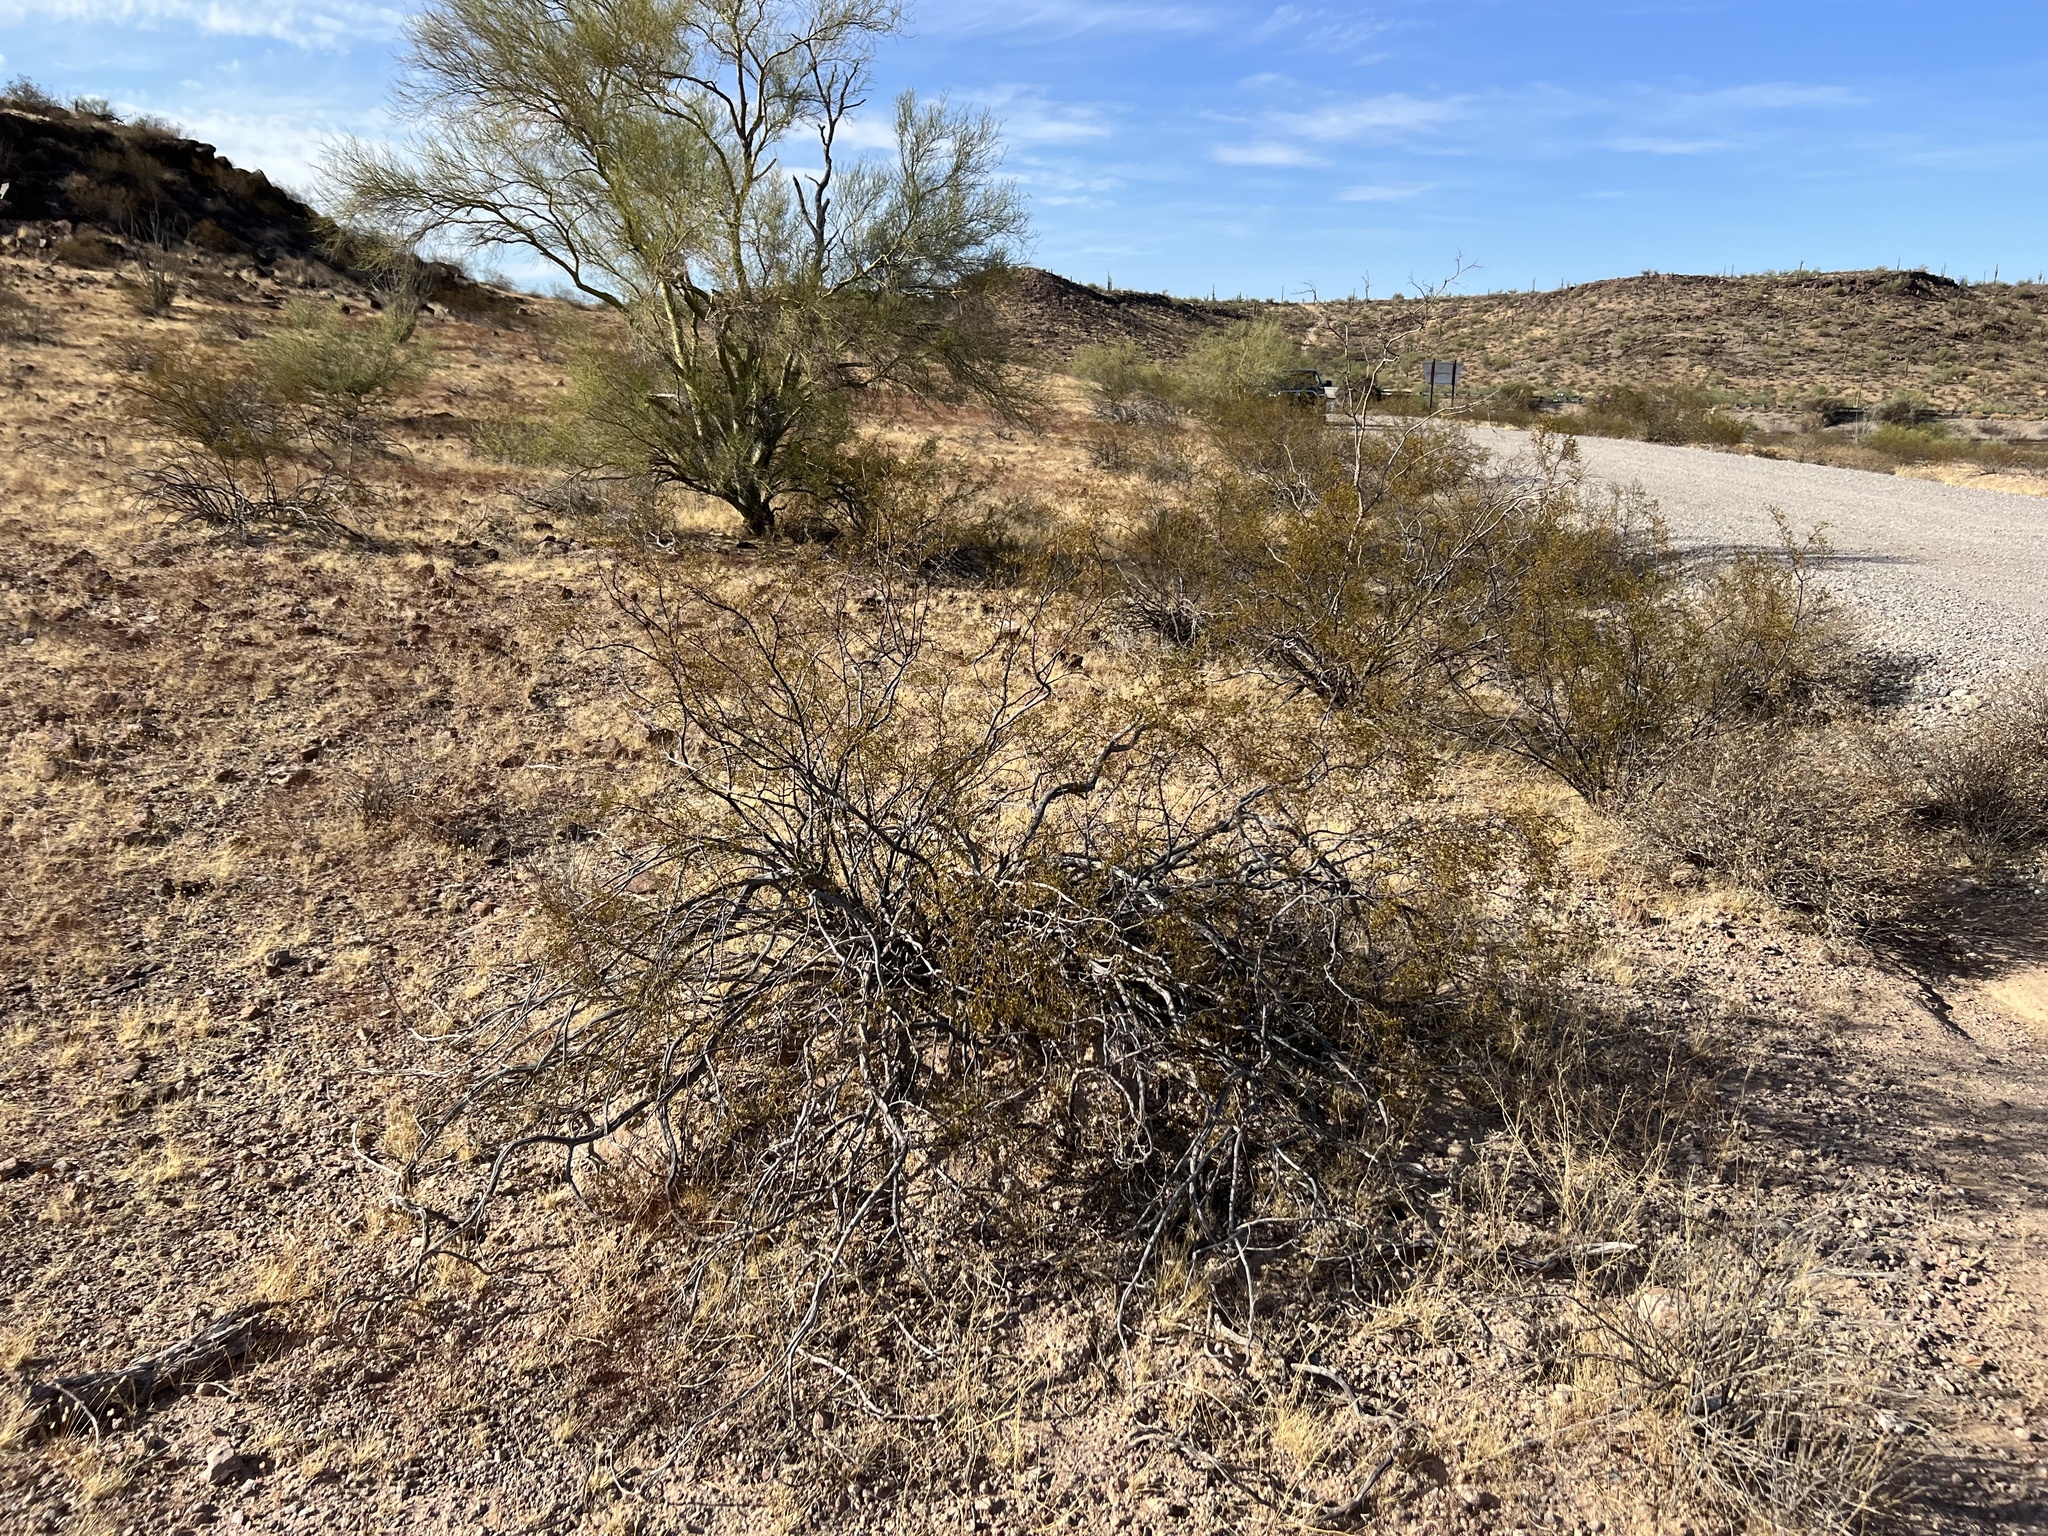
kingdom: Plantae
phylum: Tracheophyta
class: Magnoliopsida
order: Zygophyllales
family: Zygophyllaceae
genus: Larrea
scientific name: Larrea tridentata
